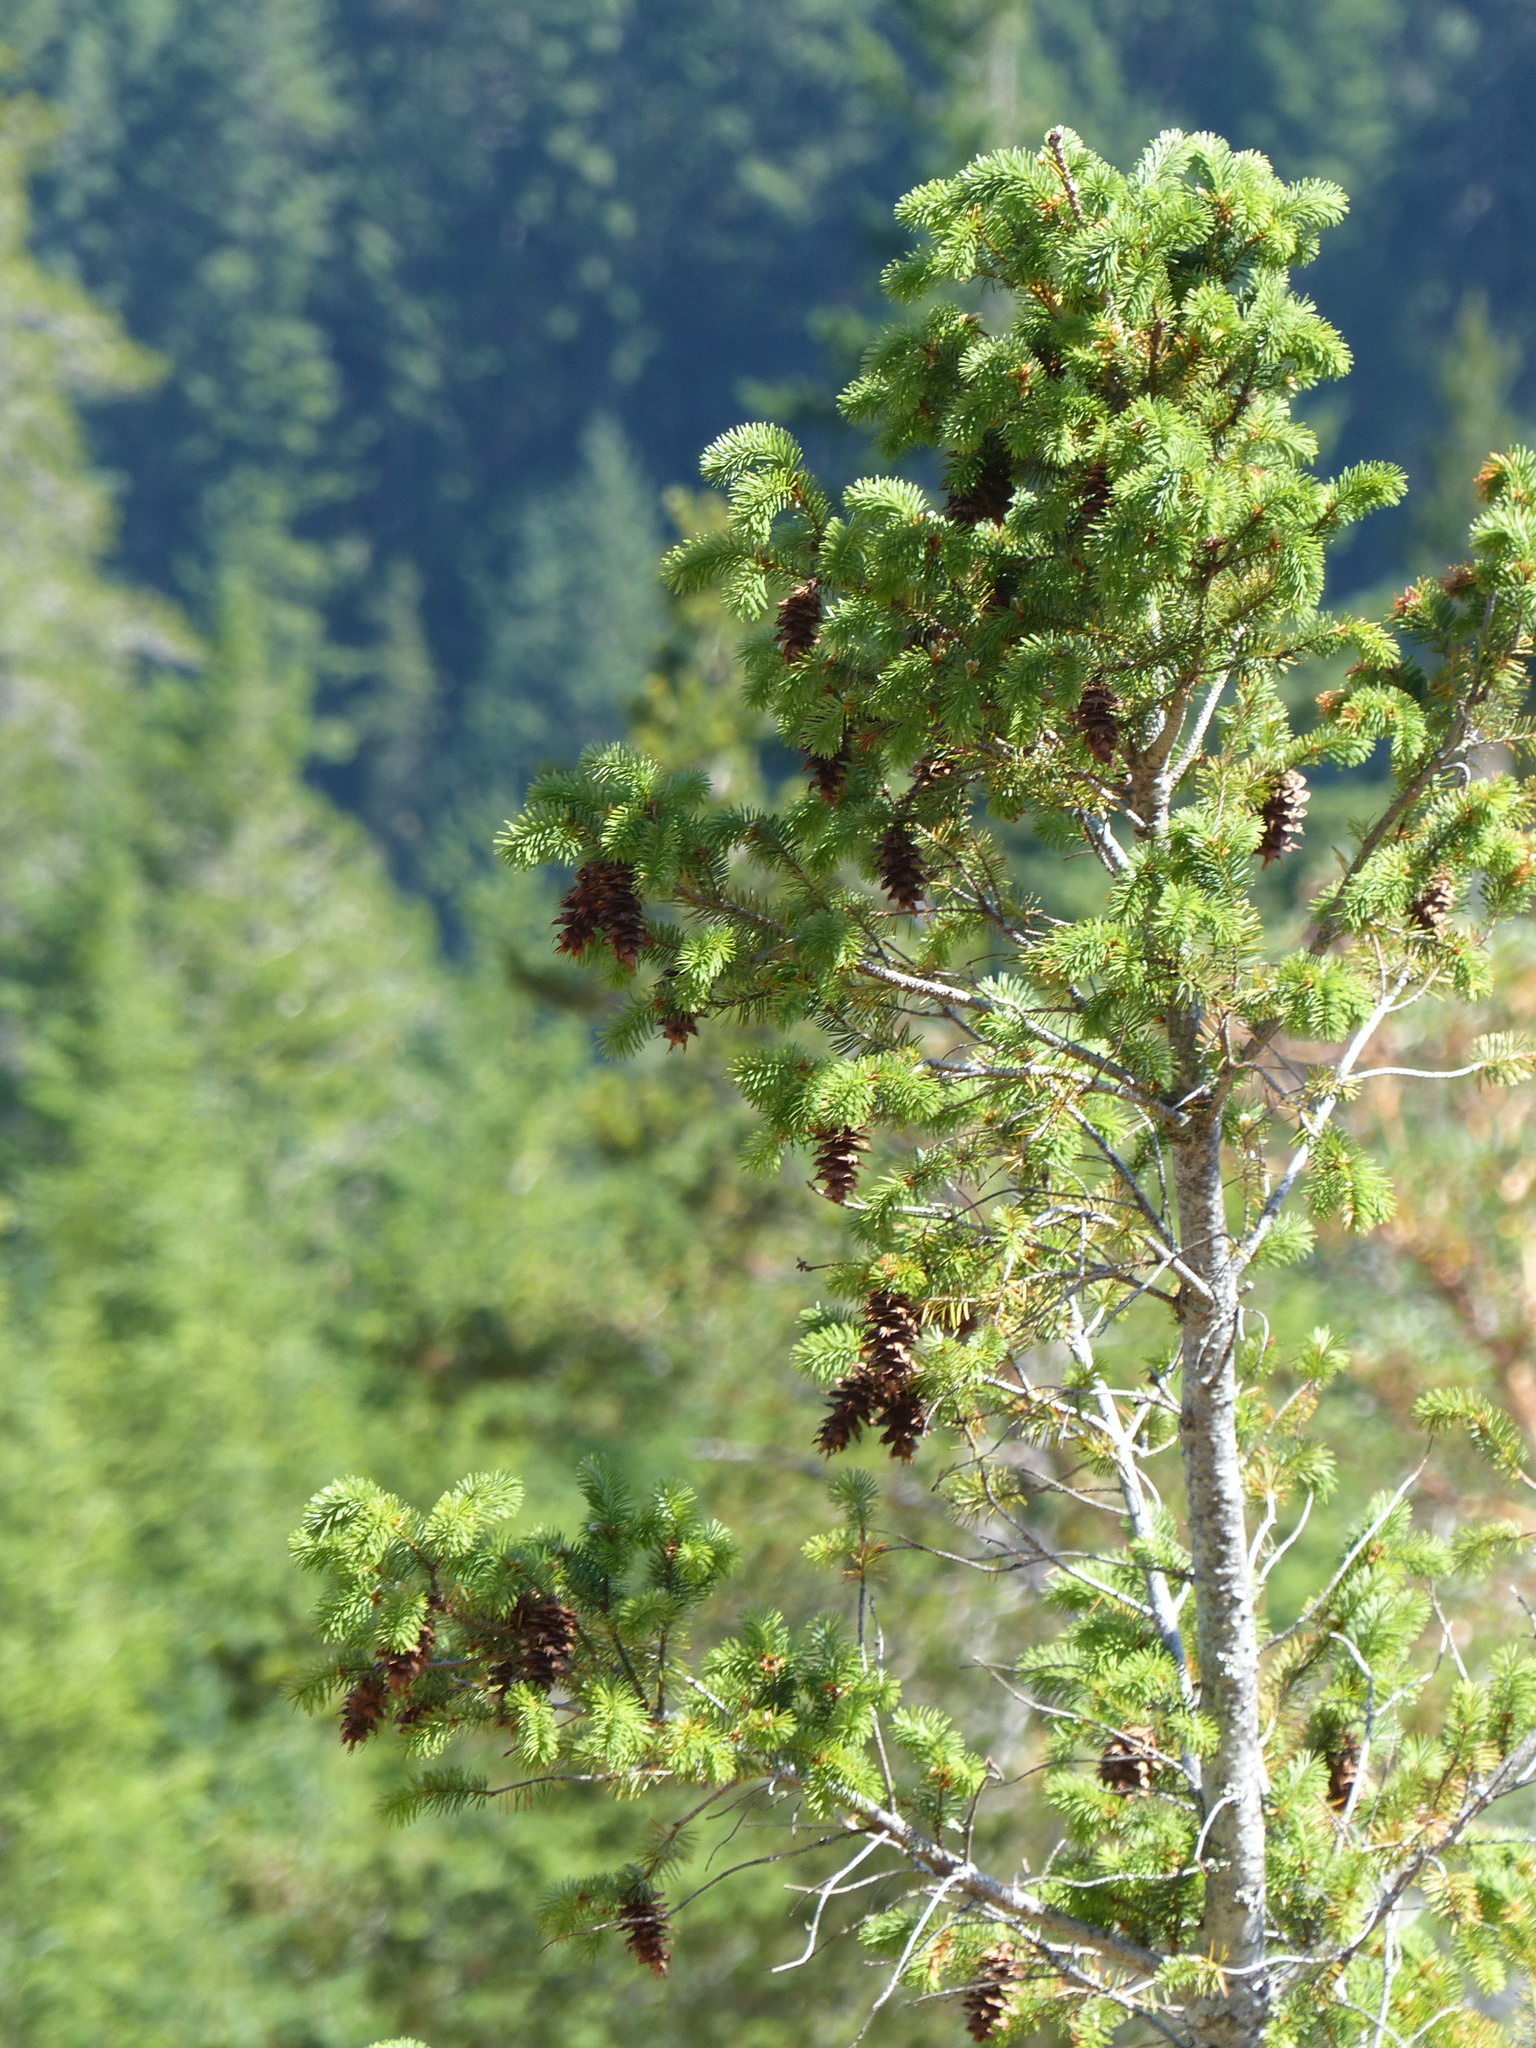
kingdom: Plantae
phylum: Tracheophyta
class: Pinopsida
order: Pinales
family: Pinaceae
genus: Pseudotsuga
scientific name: Pseudotsuga menziesii
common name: Douglas fir
